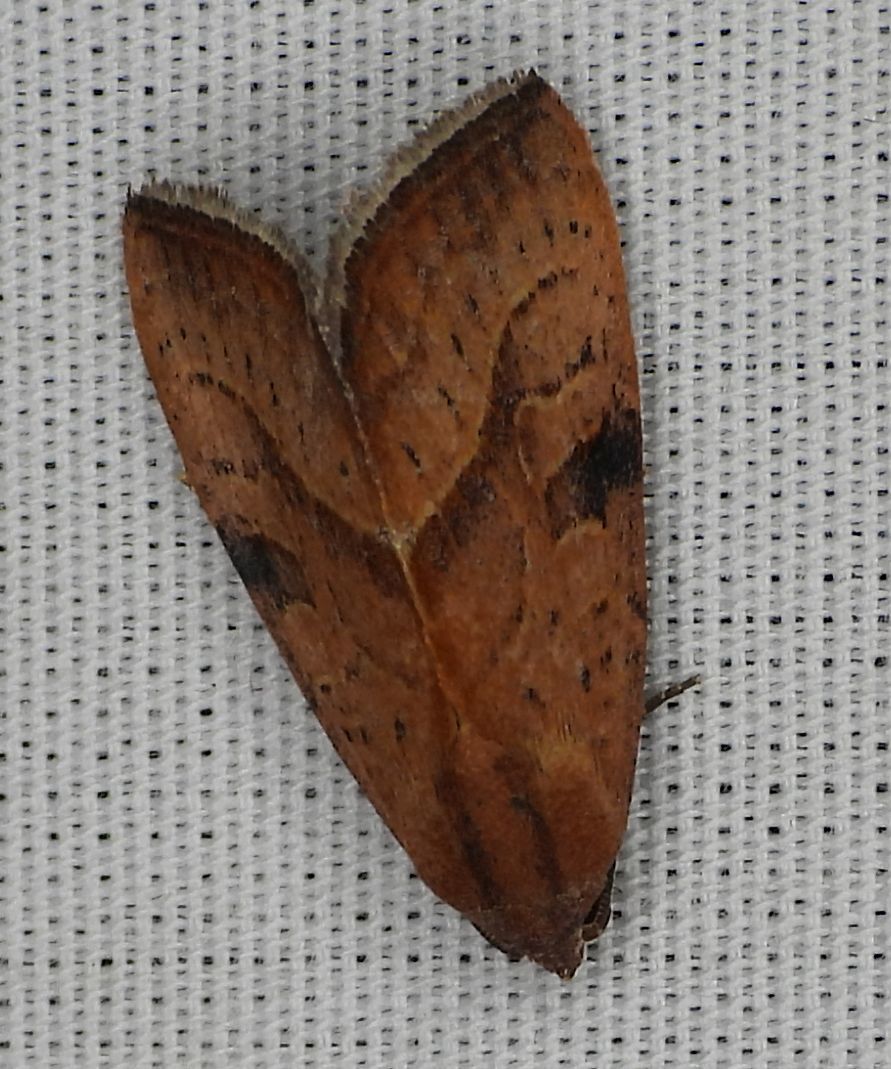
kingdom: Animalia
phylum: Arthropoda
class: Insecta
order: Lepidoptera
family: Noctuidae
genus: Galgula
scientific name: Galgula partita
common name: Wedgeling
